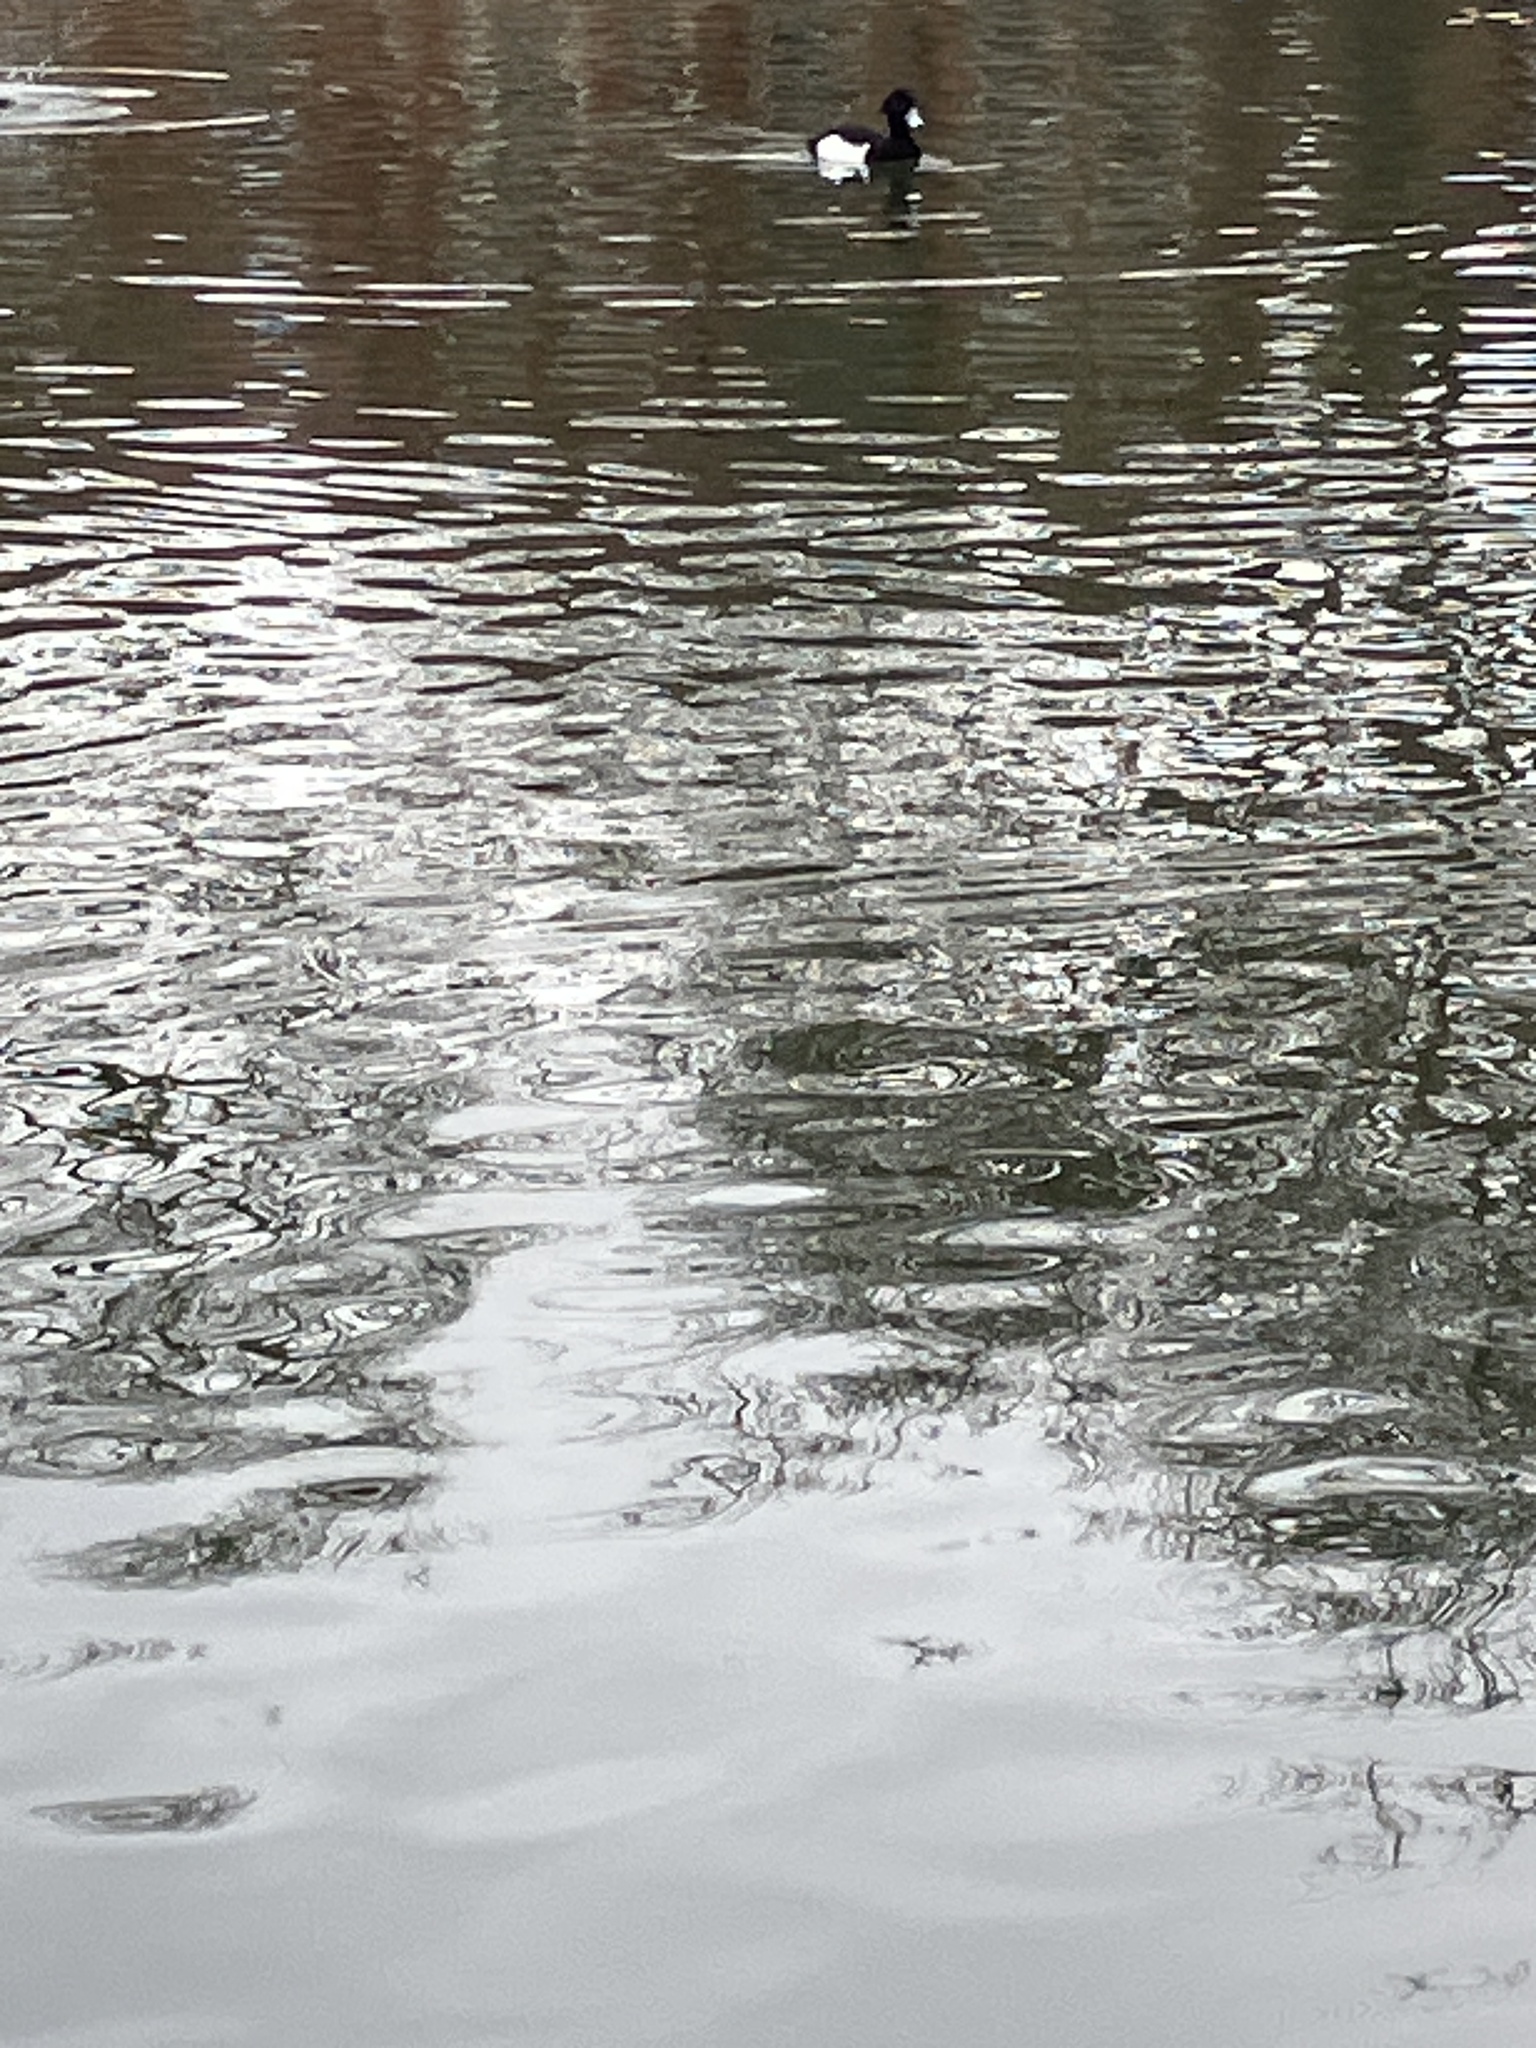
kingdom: Animalia
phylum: Chordata
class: Aves
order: Anseriformes
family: Anatidae
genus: Aythya
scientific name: Aythya fuligula
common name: Tufted duck
